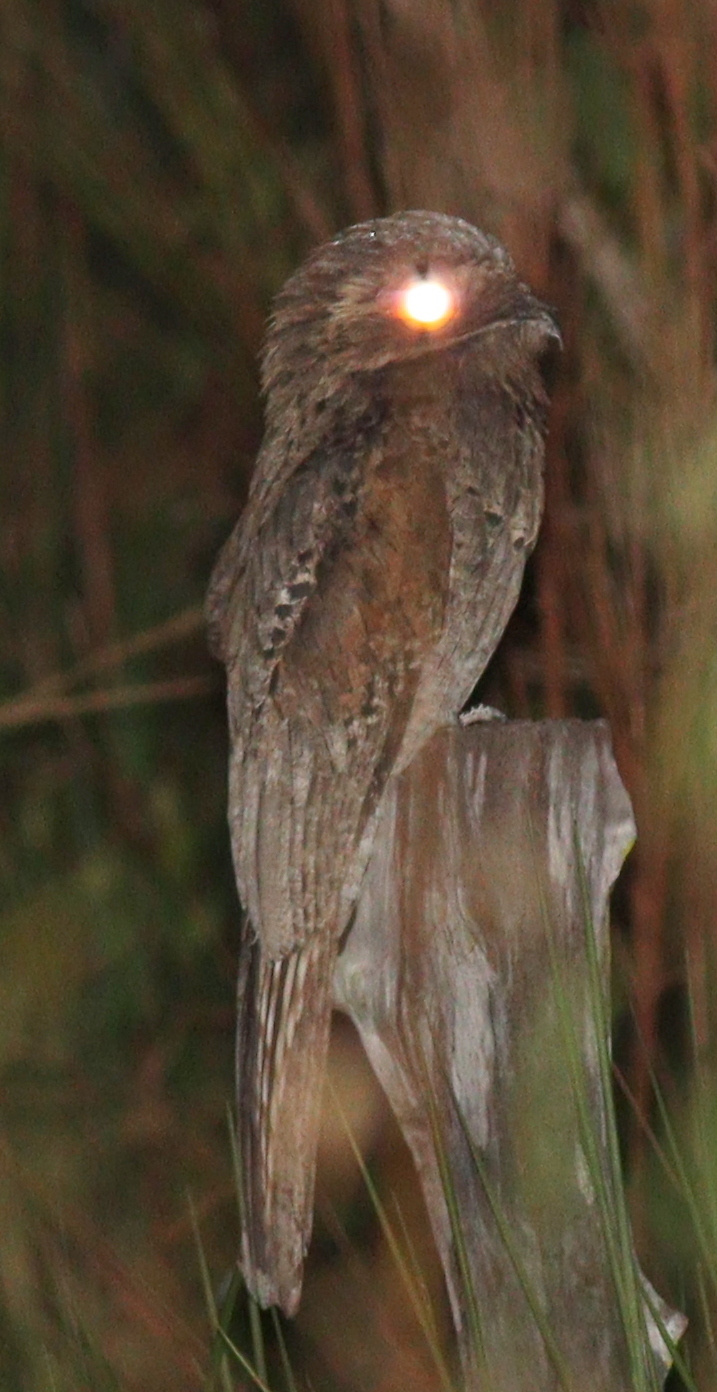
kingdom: Animalia
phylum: Chordata
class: Aves
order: Nyctibiiformes
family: Nyctibiidae
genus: Nyctibius
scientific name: Nyctibius griseus
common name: Common potoo
